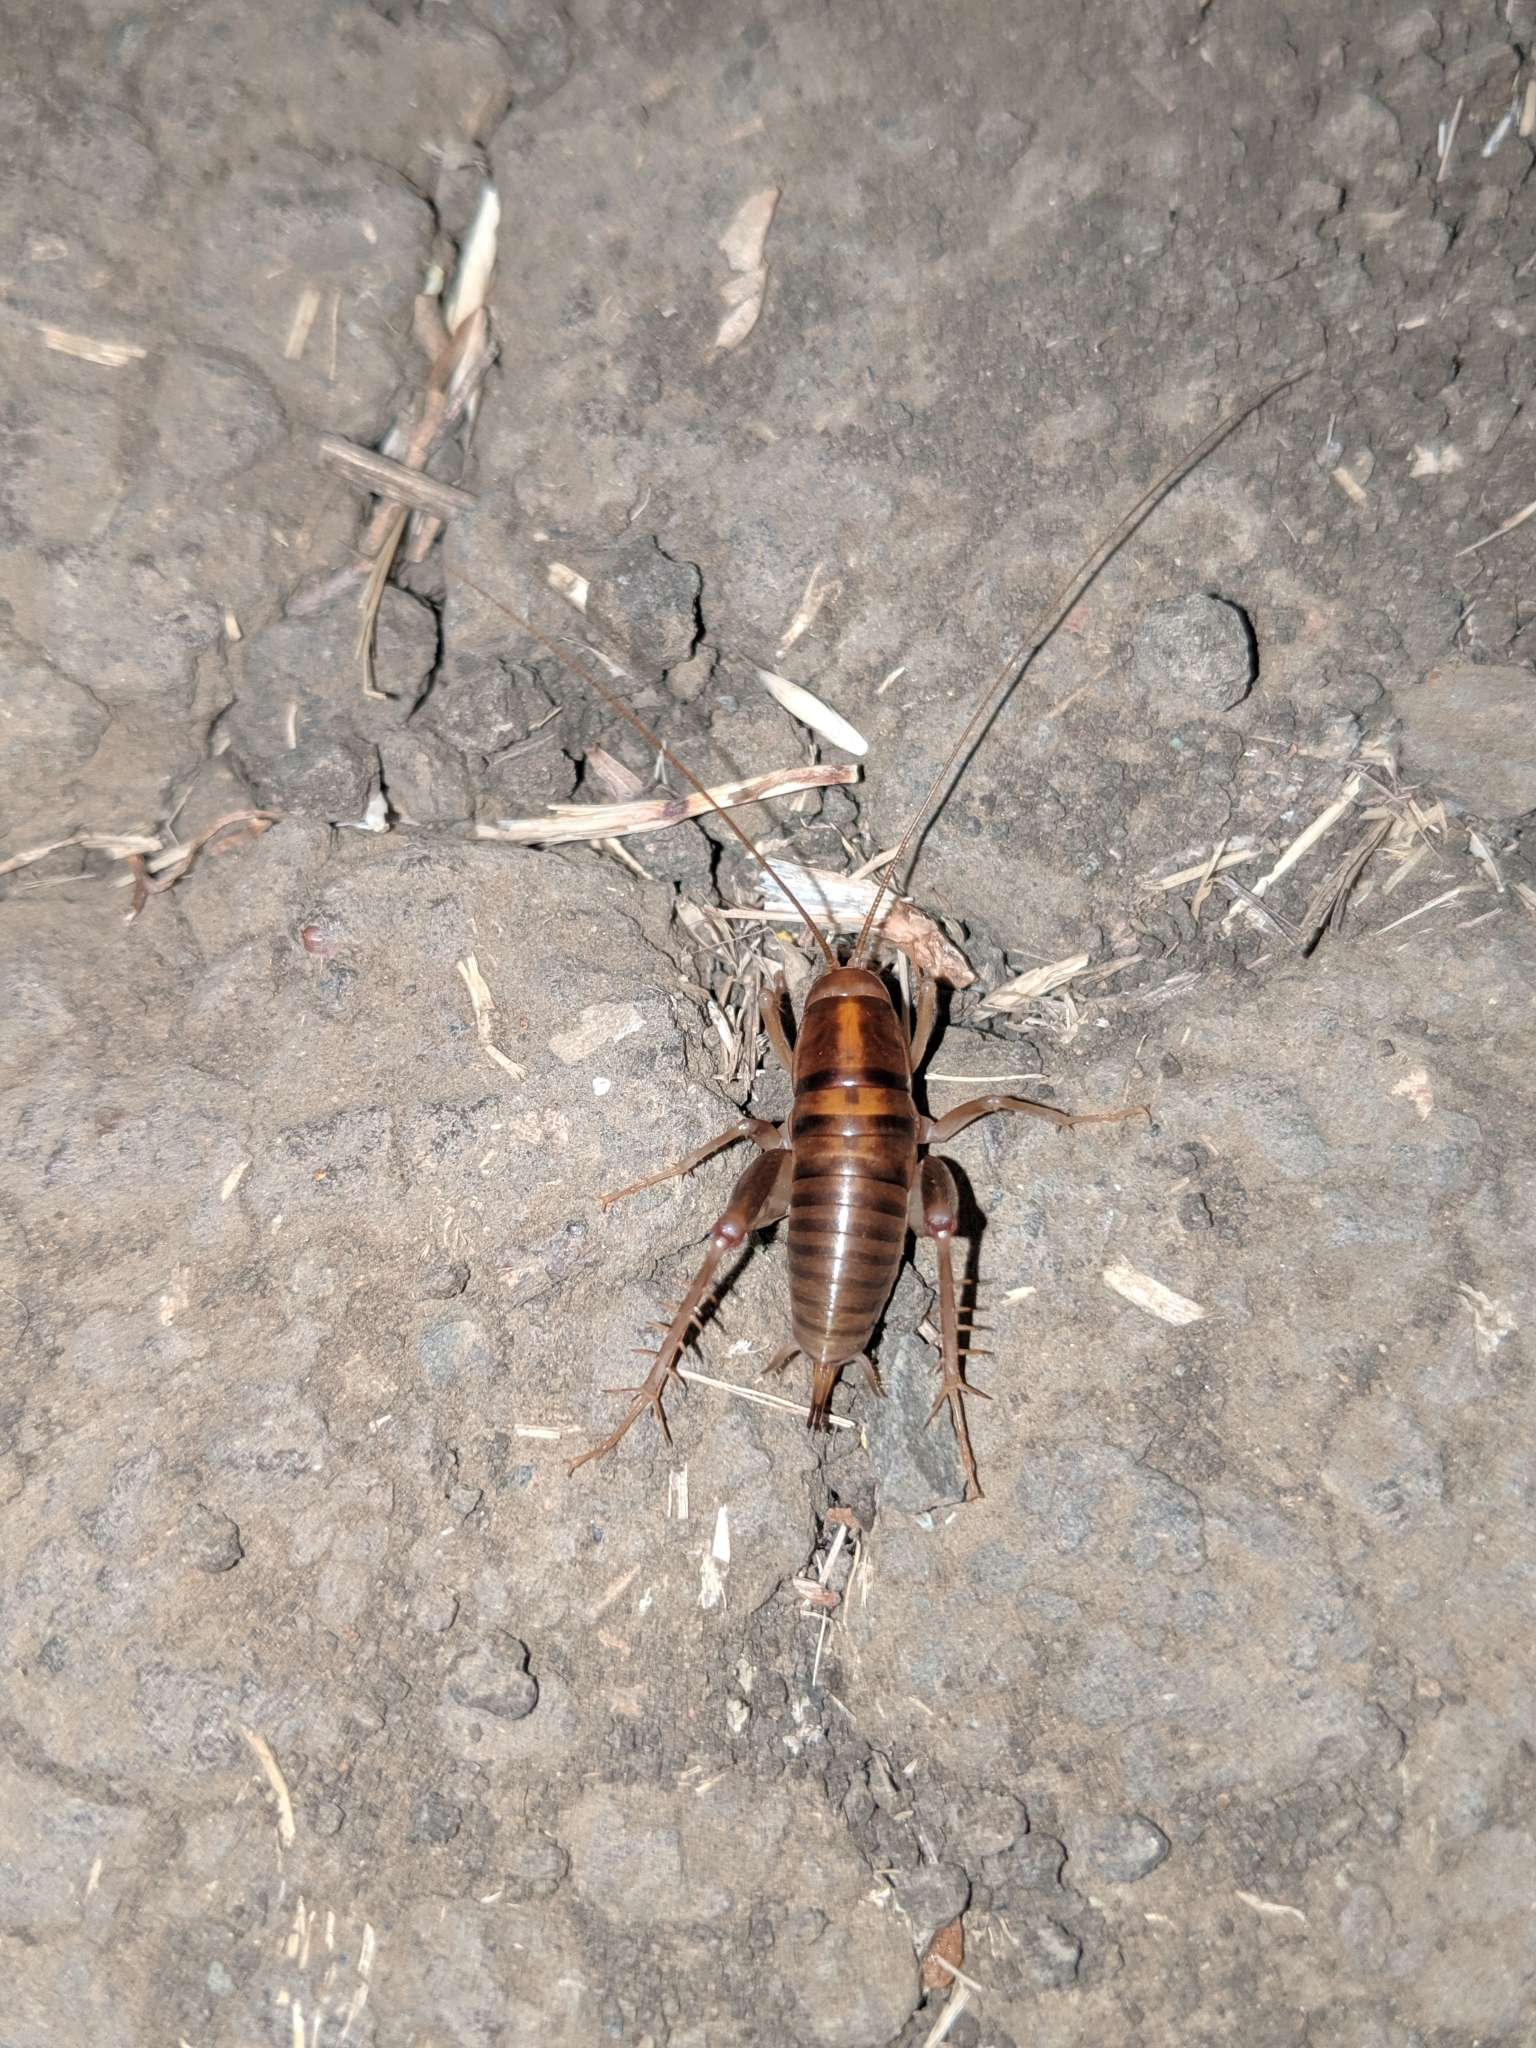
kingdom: Animalia
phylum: Arthropoda
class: Insecta
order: Orthoptera
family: Rhaphidophoridae
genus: Ceuthophilus
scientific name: Ceuthophilus californianus
